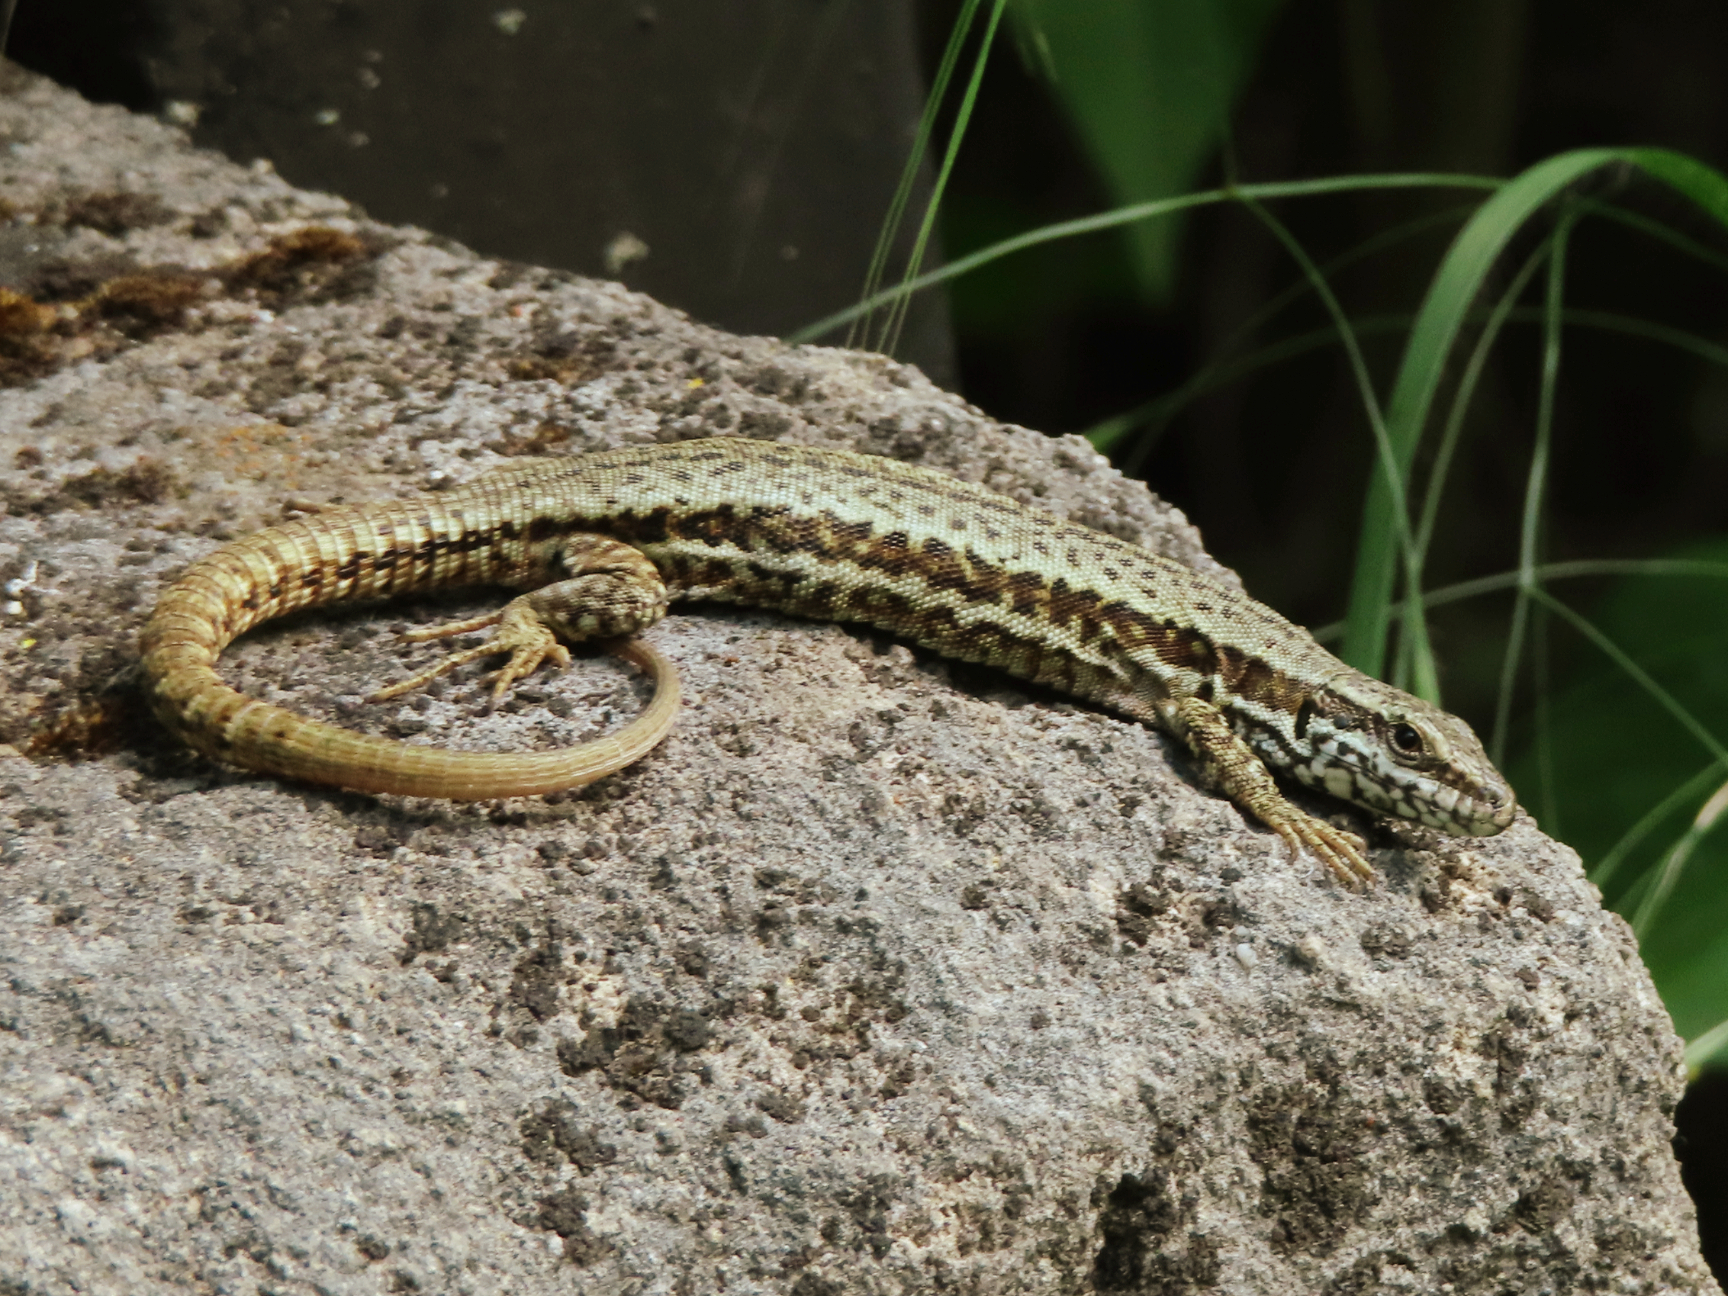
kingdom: Animalia
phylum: Chordata
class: Squamata
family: Lacertidae
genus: Podarcis
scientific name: Podarcis muralis
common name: Common wall lizard
